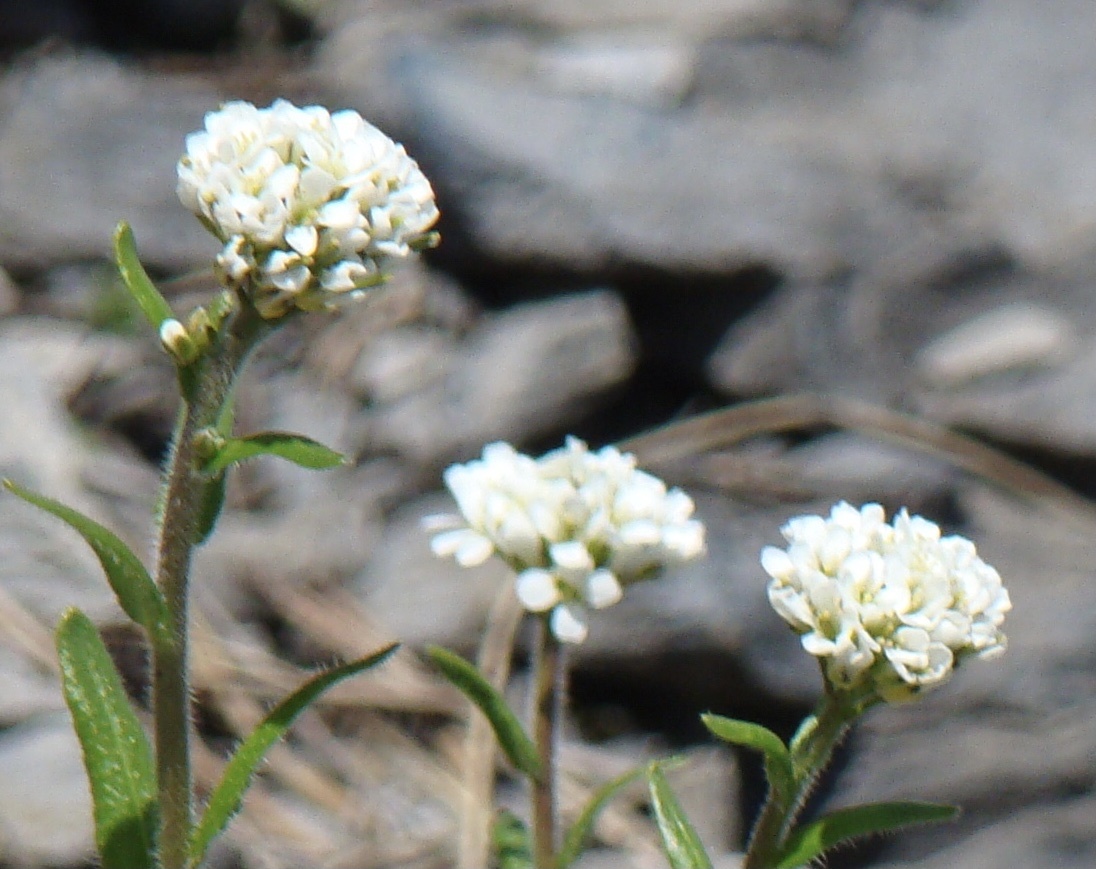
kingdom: Plantae
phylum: Tracheophyta
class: Magnoliopsida
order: Brassicales
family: Brassicaceae
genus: Arabis
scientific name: Arabis ciliata
